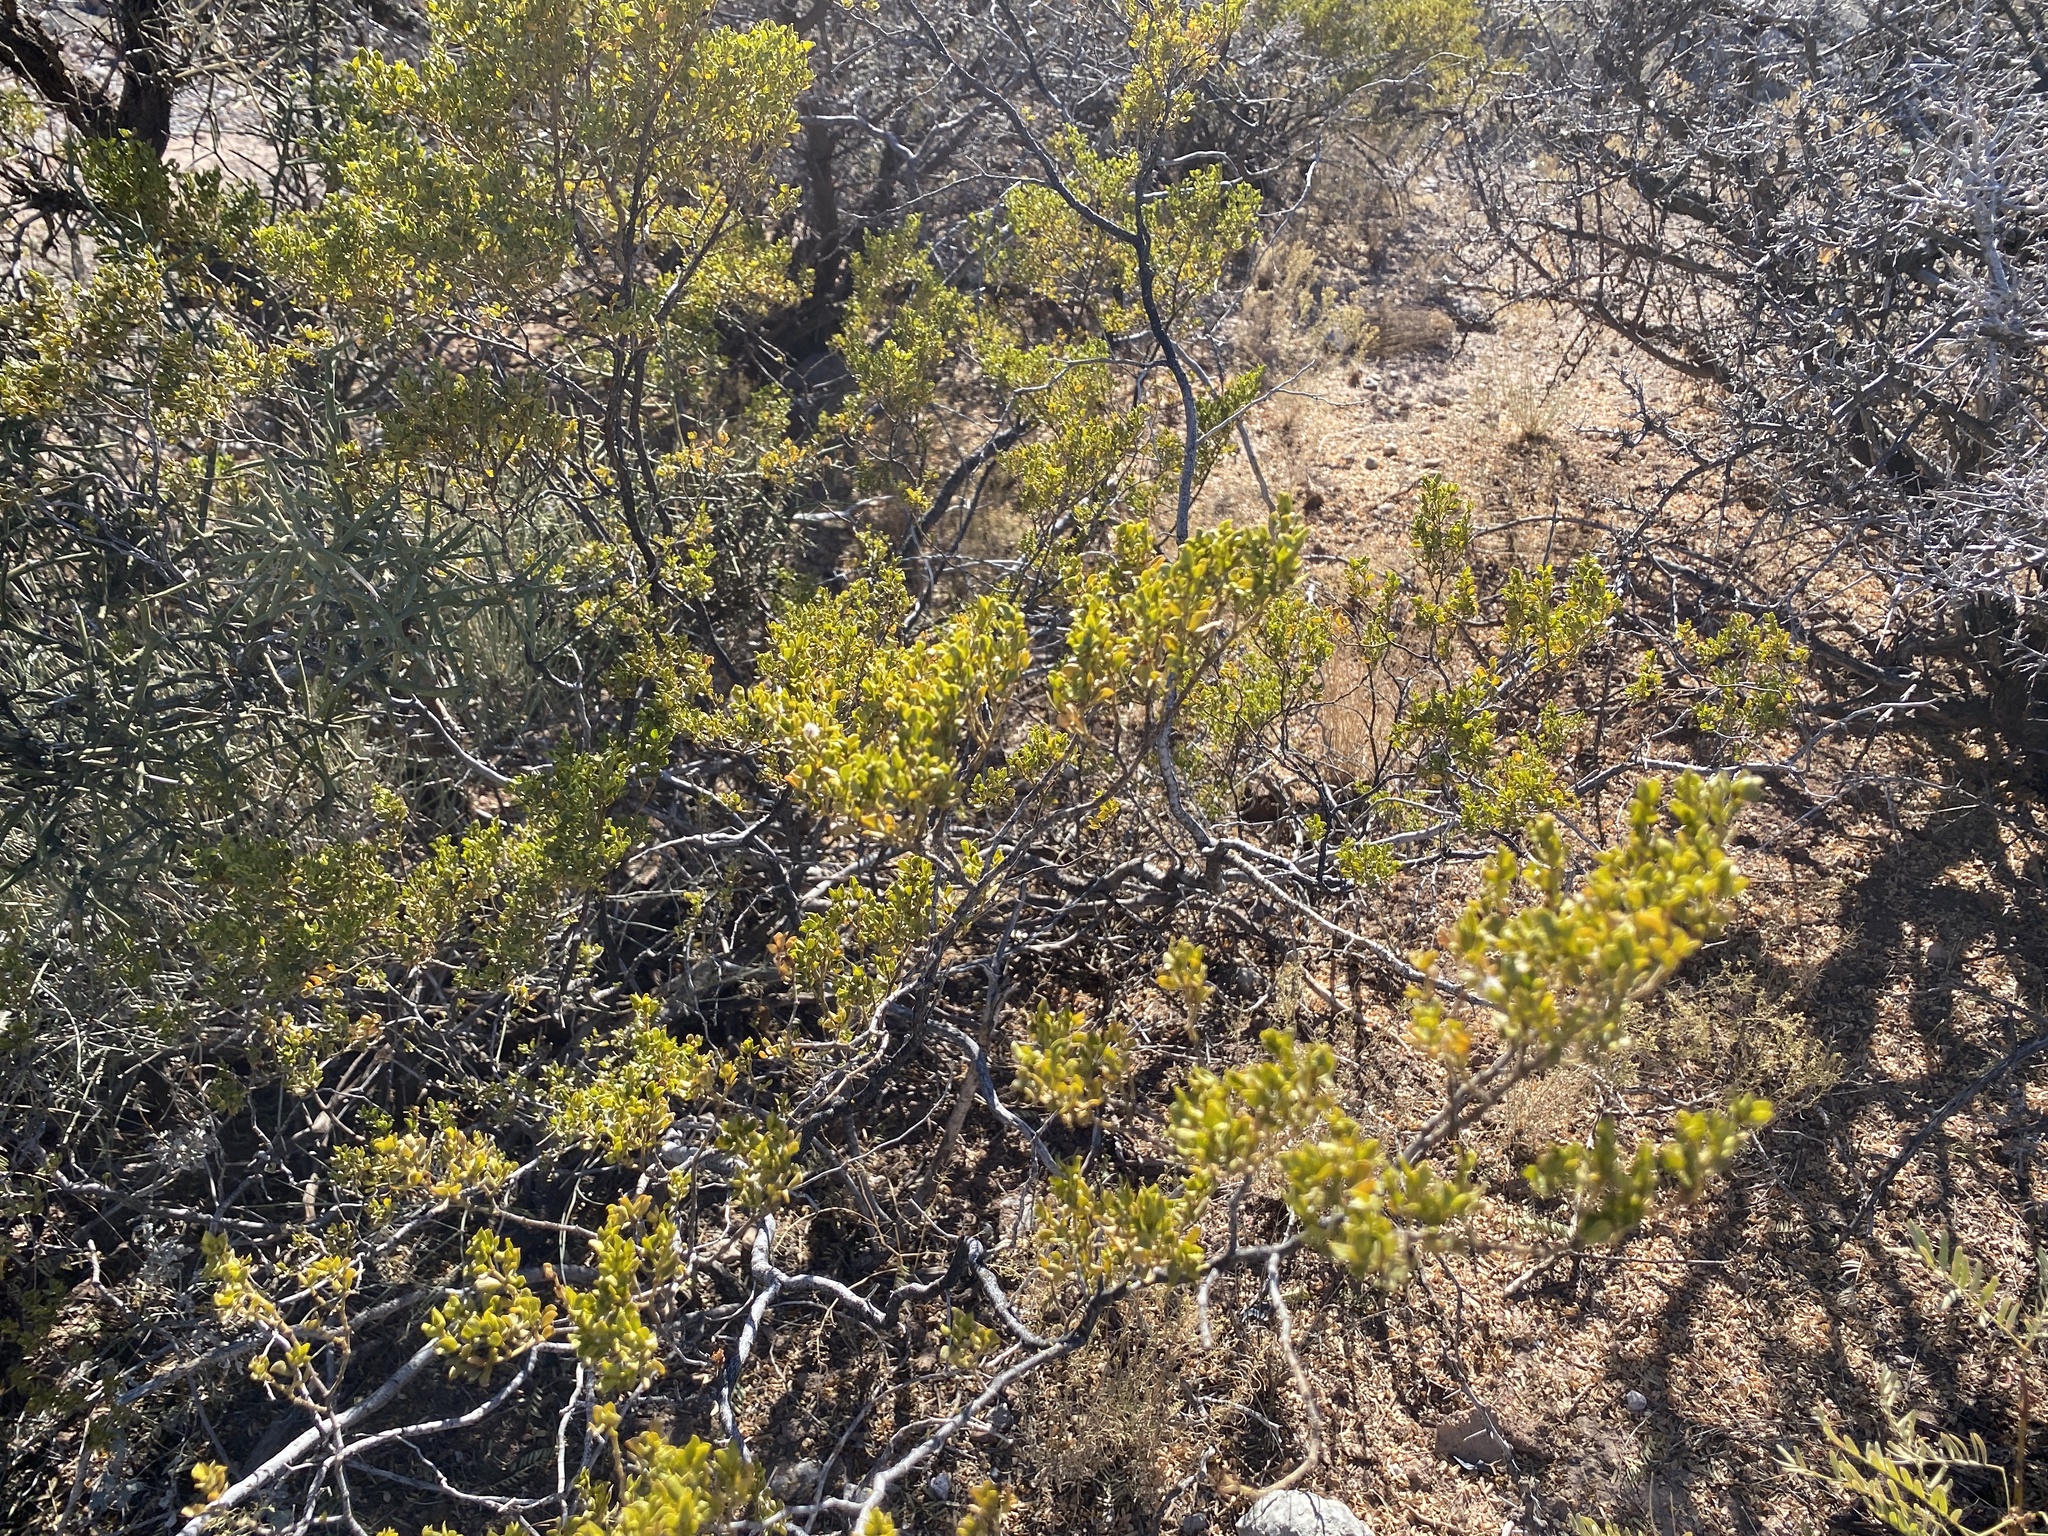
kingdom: Plantae
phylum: Tracheophyta
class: Magnoliopsida
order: Zygophyllales
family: Zygophyllaceae
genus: Larrea
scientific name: Larrea tridentata
